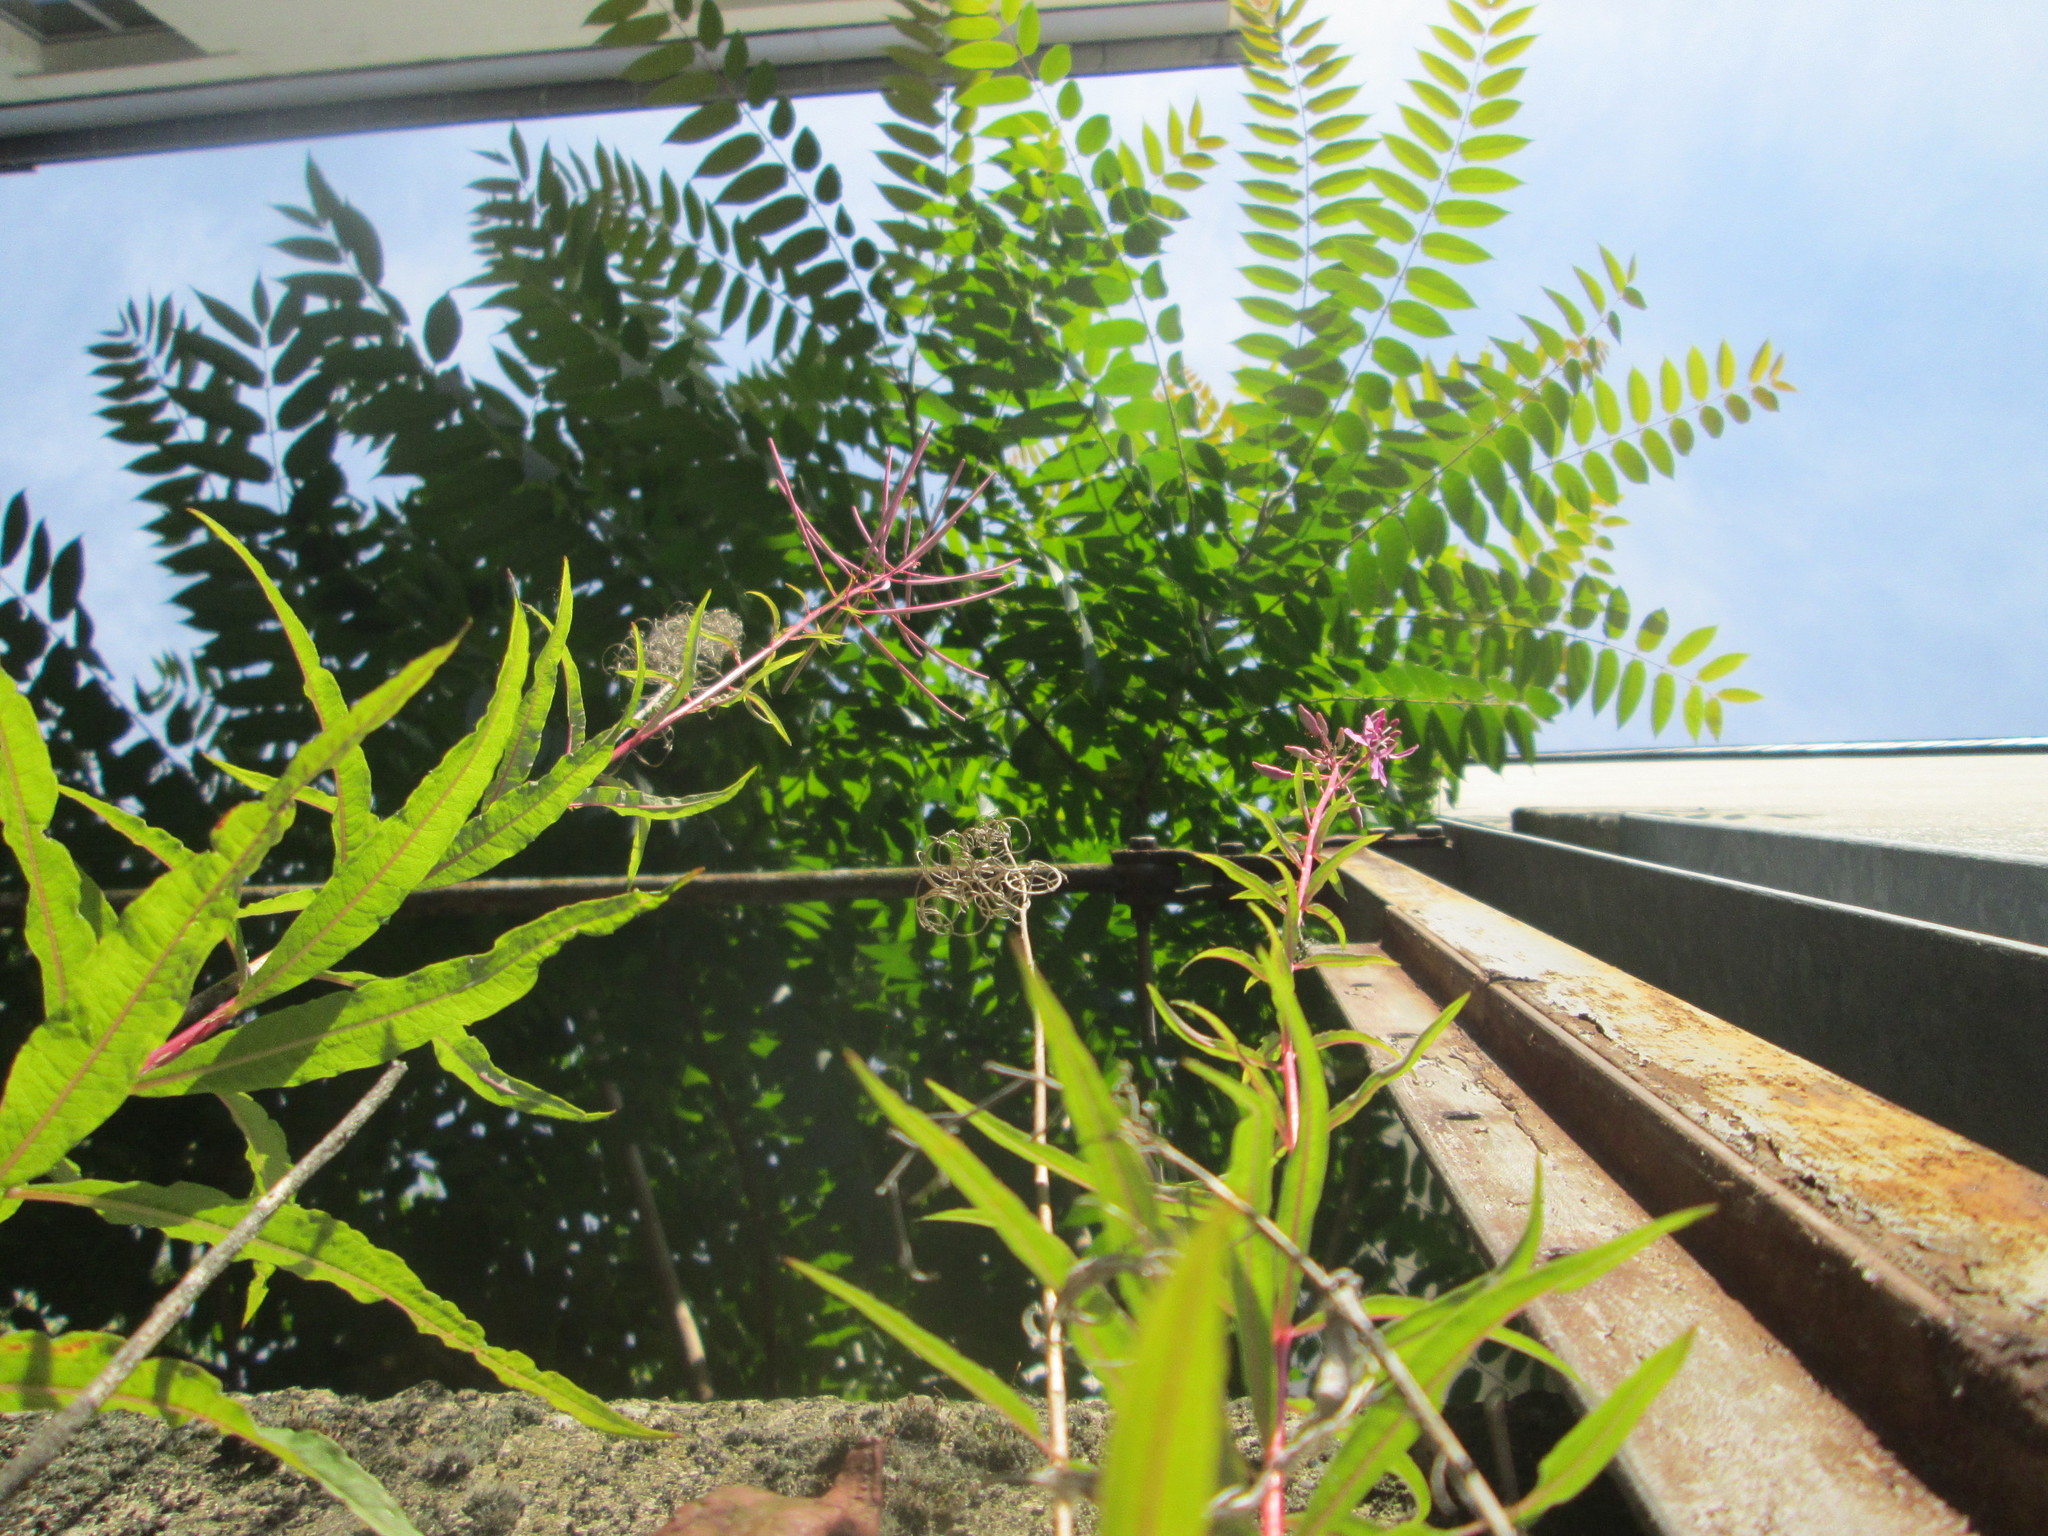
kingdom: Plantae
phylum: Tracheophyta
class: Magnoliopsida
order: Myrtales
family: Onagraceae
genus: Chamaenerion
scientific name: Chamaenerion angustifolium
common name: Fireweed
